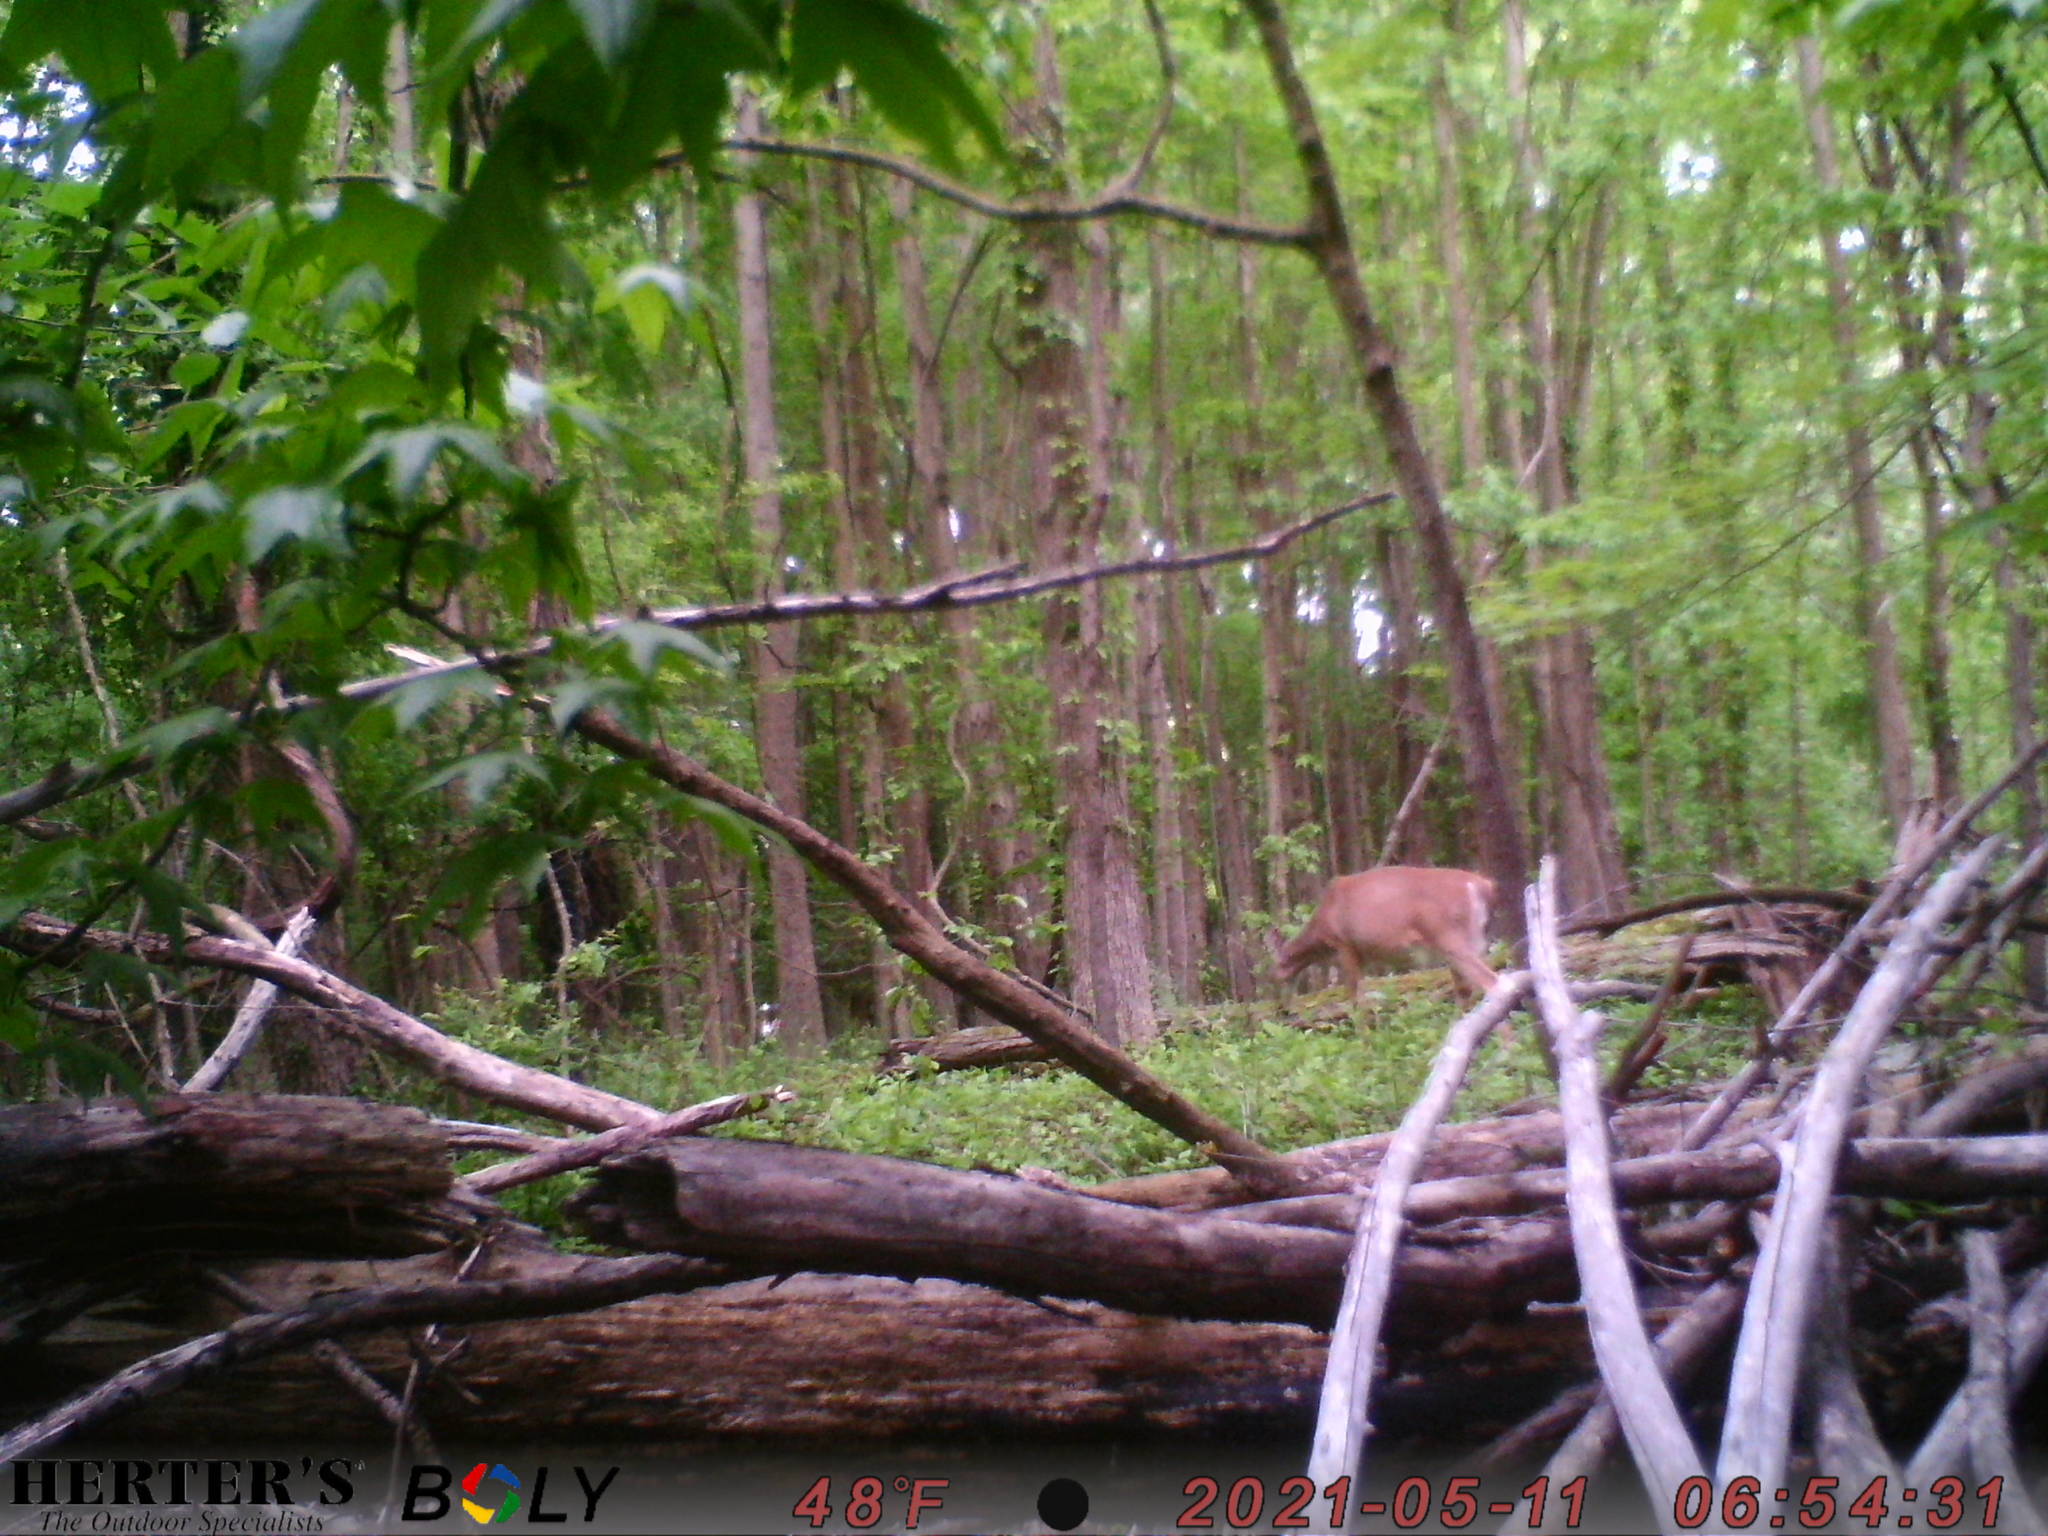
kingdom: Animalia
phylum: Chordata
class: Mammalia
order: Artiodactyla
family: Cervidae
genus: Odocoileus
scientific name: Odocoileus virginianus
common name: White-tailed deer
